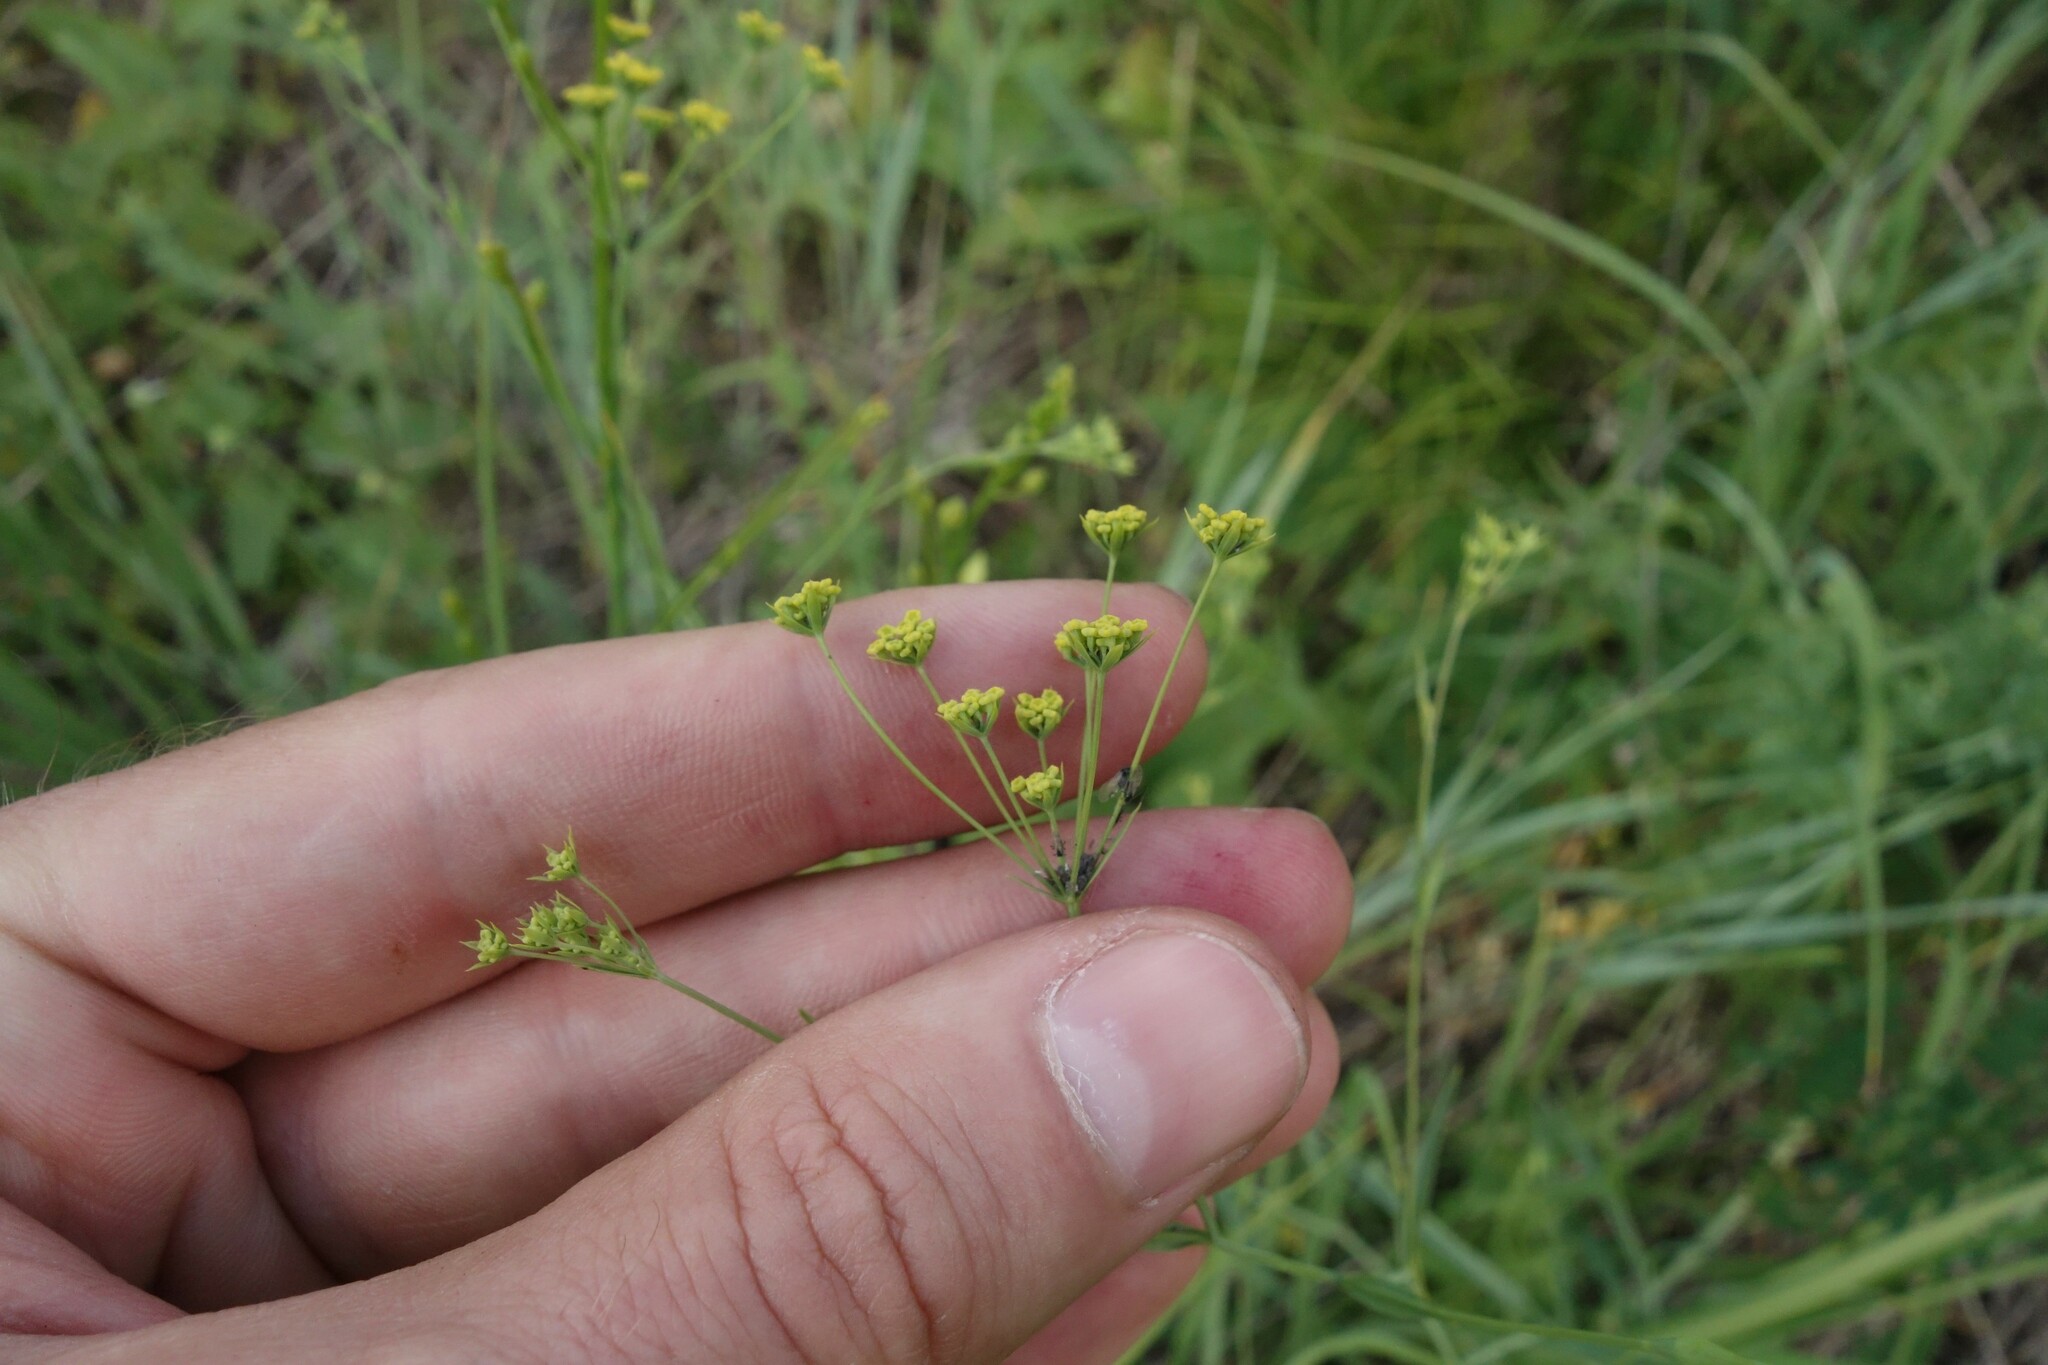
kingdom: Plantae
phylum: Tracheophyta
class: Magnoliopsida
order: Apiales
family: Apiaceae
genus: Bupleurum
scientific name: Bupleurum falcatum
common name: Sickle-leaved hare's-ear
